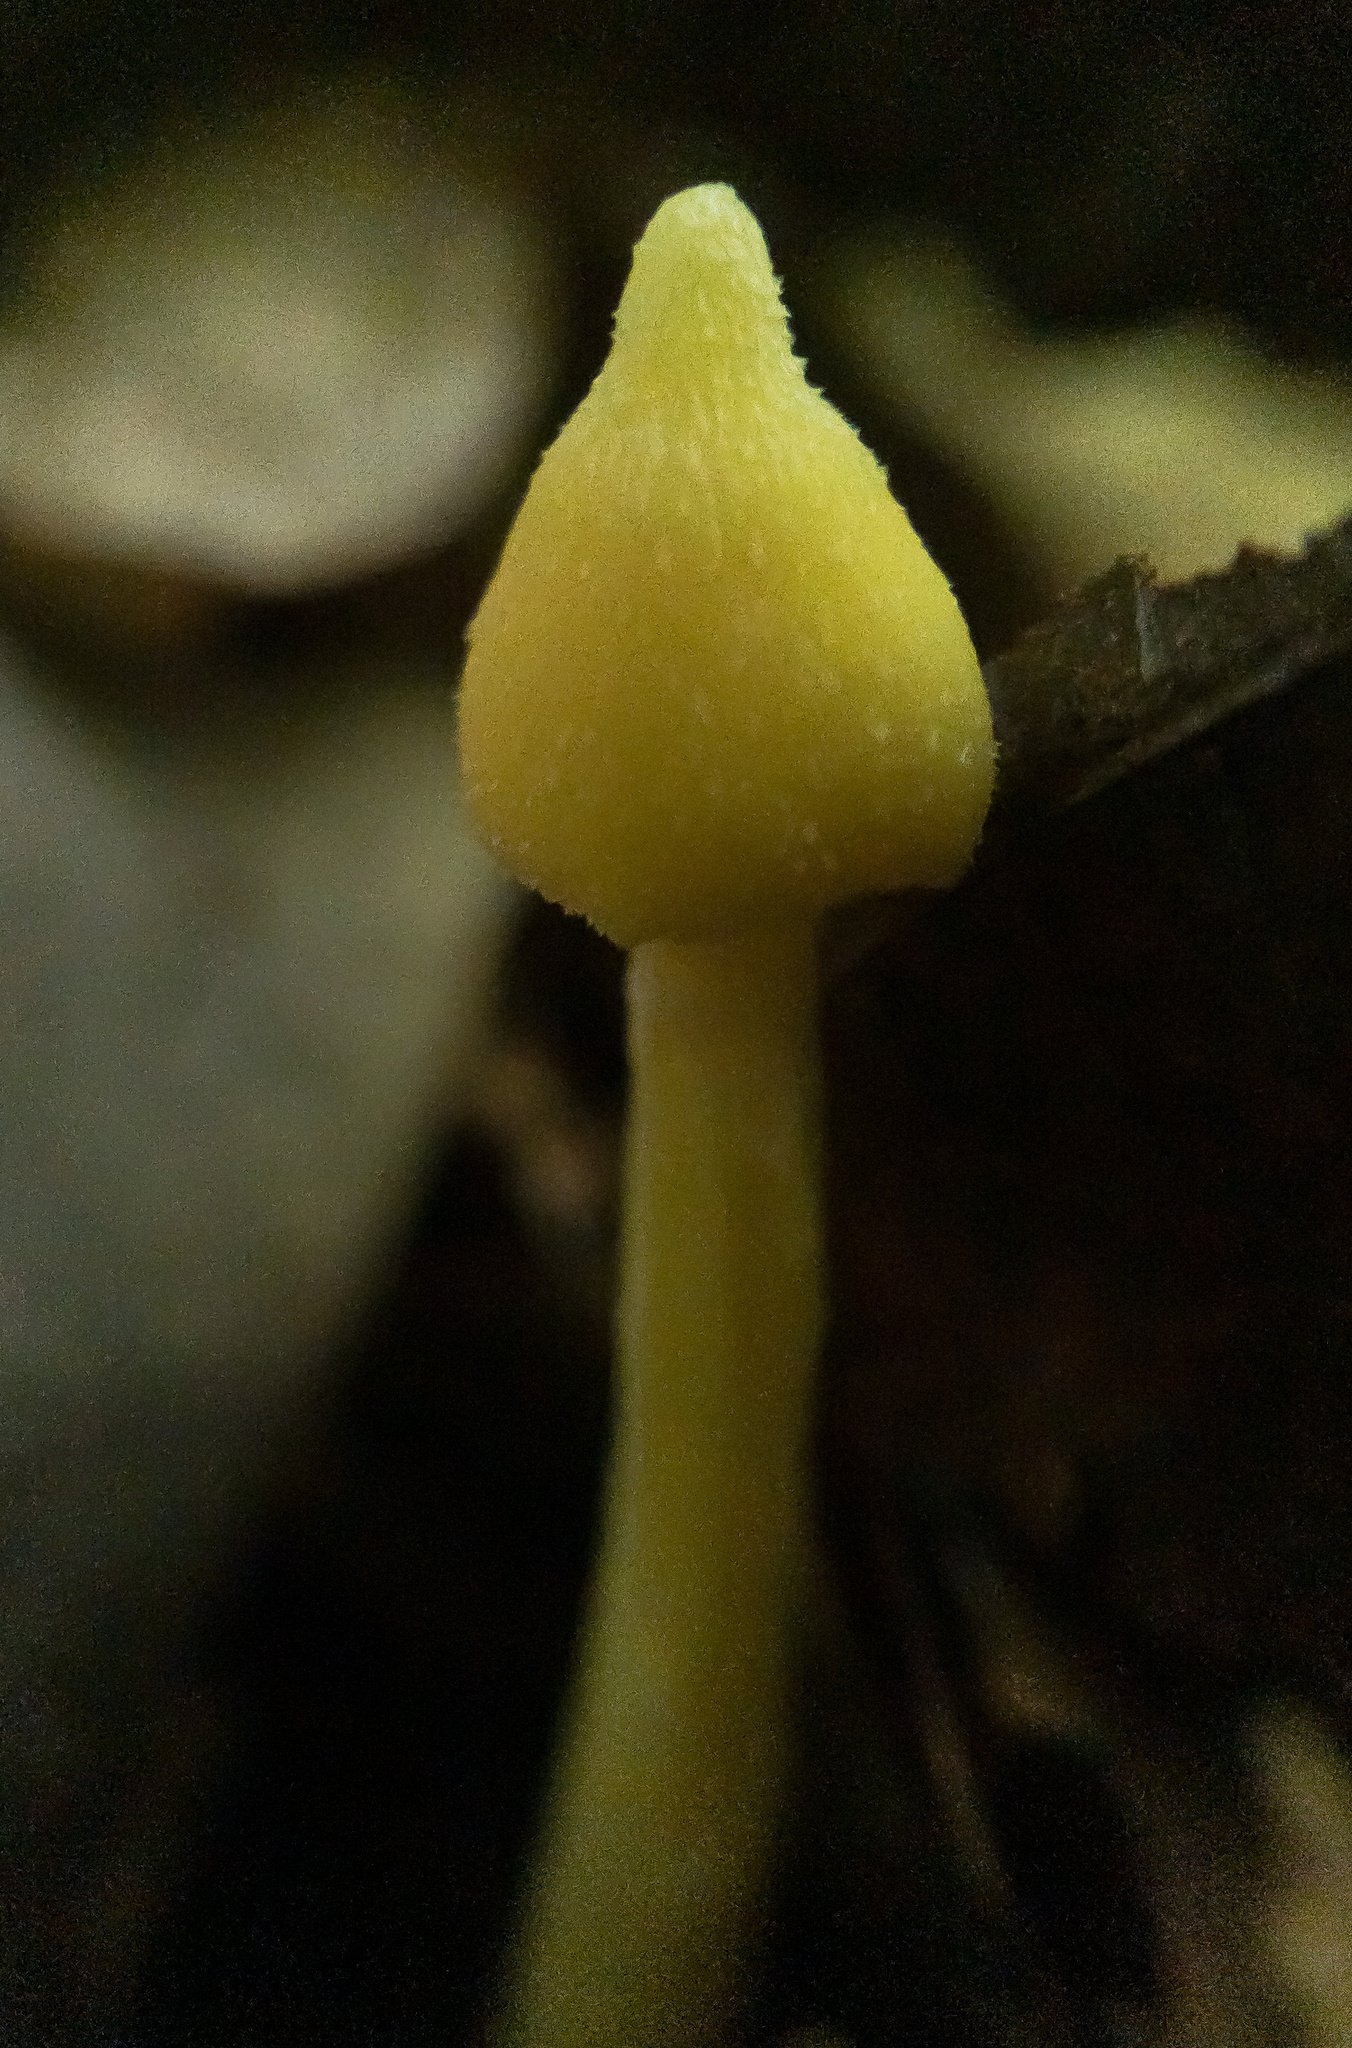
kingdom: Fungi
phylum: Basidiomycota
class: Agaricomycetes
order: Agaricales
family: Entolomataceae
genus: Entoloma
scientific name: Entoloma murrayi
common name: Yellow unicorn entoloma
